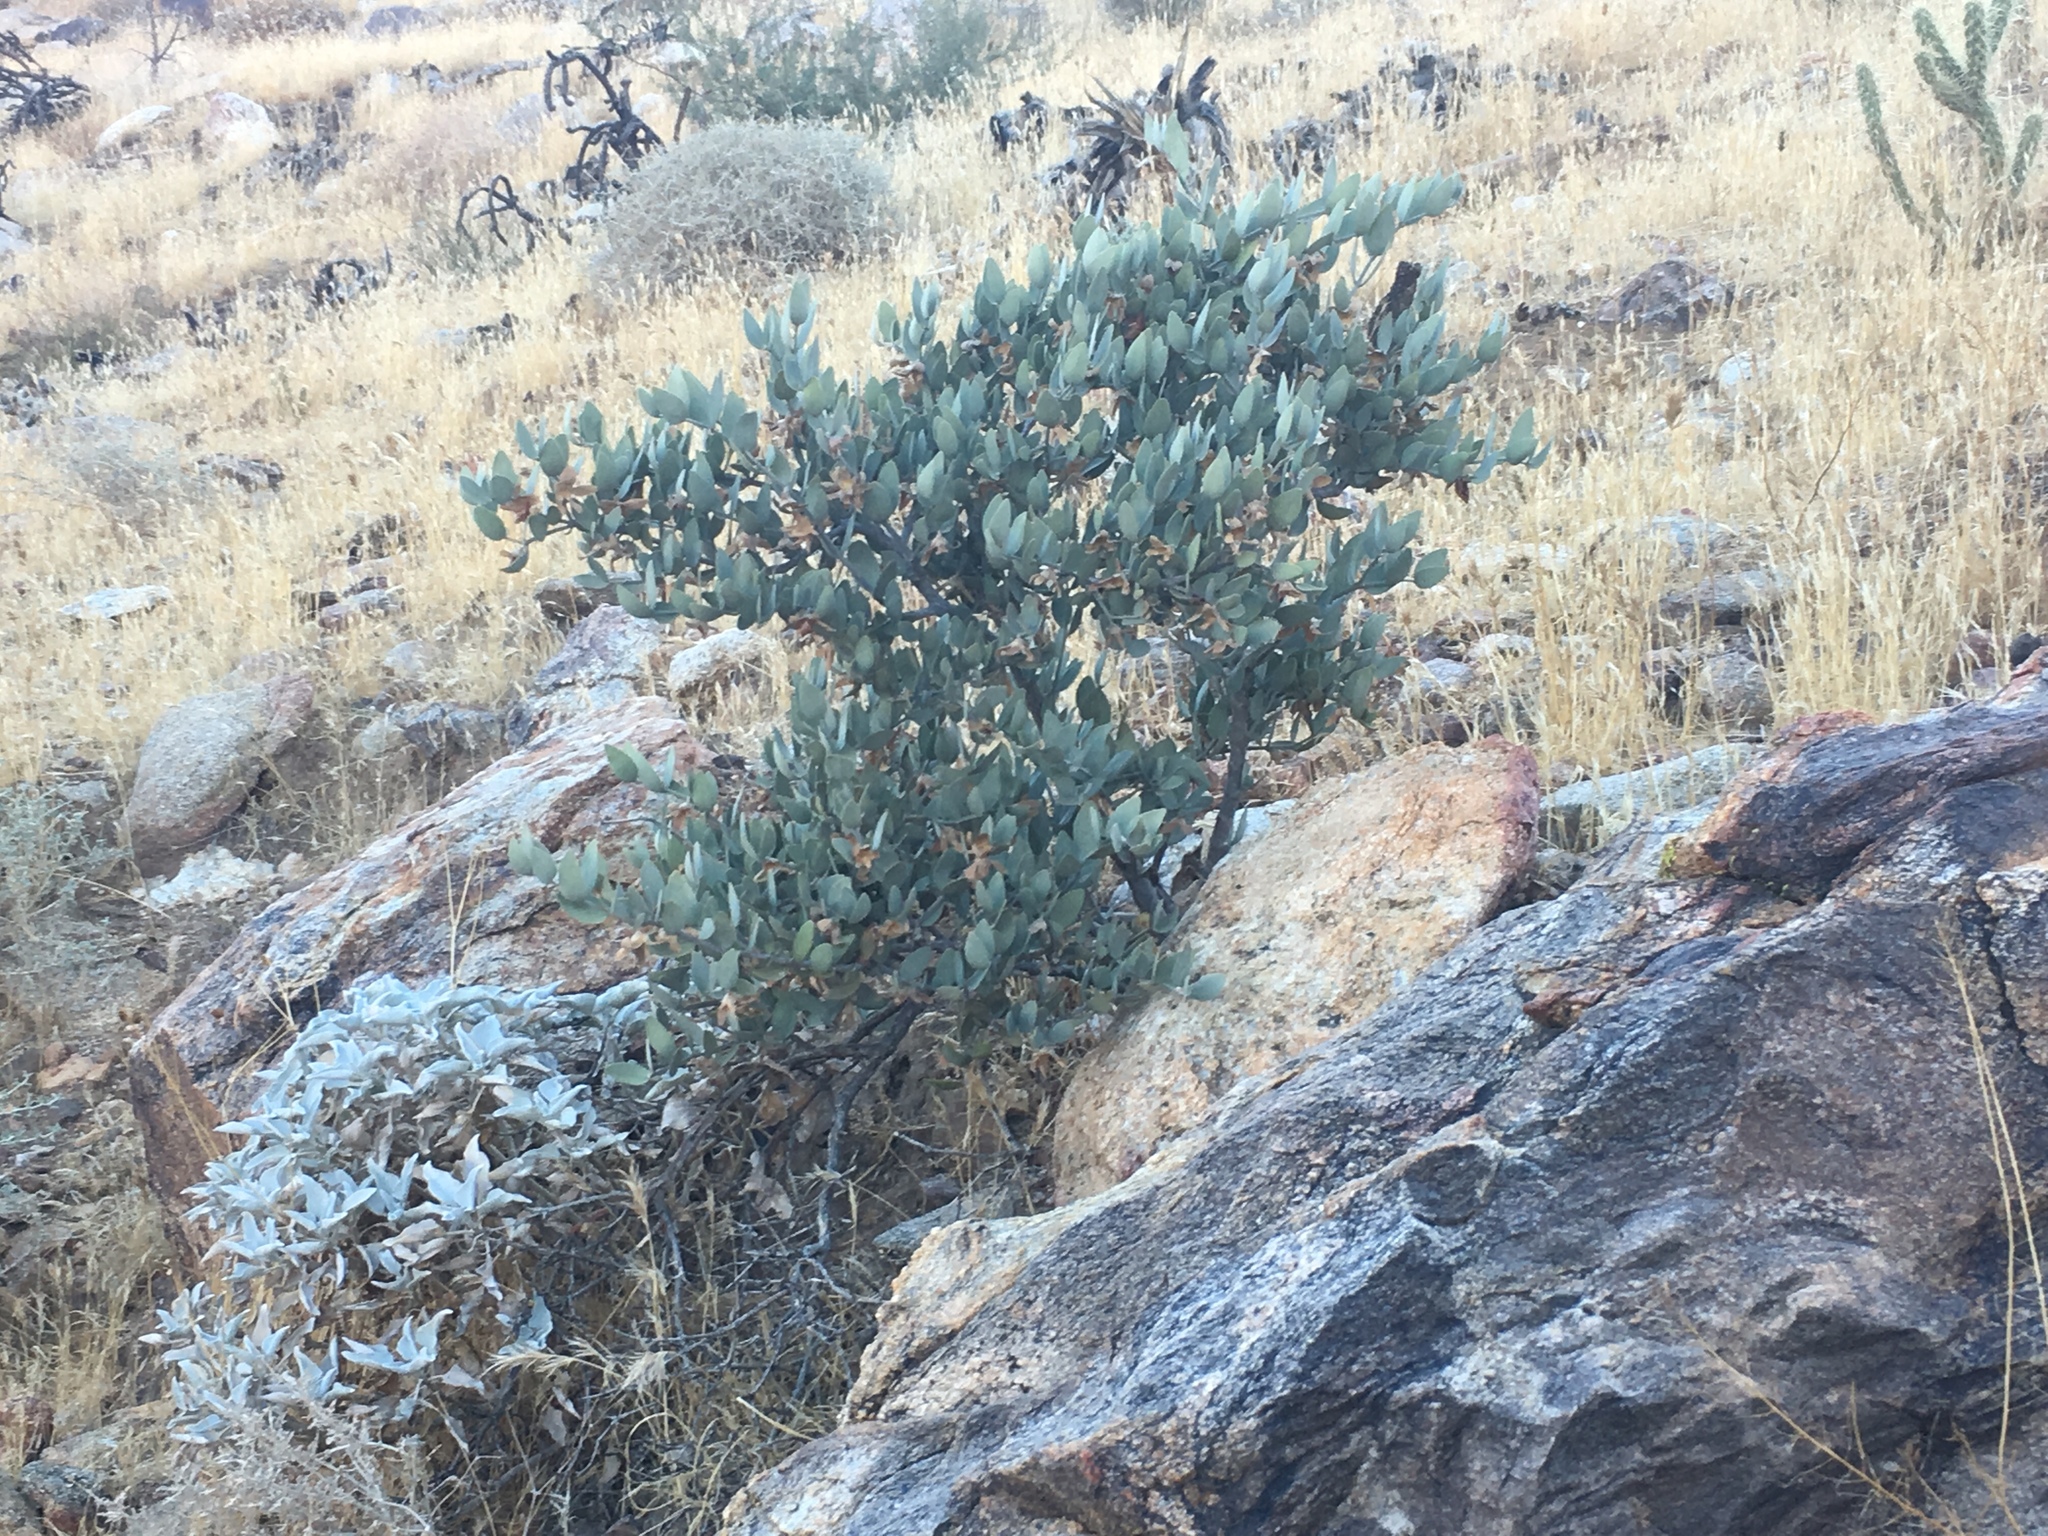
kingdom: Plantae
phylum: Tracheophyta
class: Magnoliopsida
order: Caryophyllales
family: Simmondsiaceae
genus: Simmondsia
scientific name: Simmondsia chinensis
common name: Jojoba
